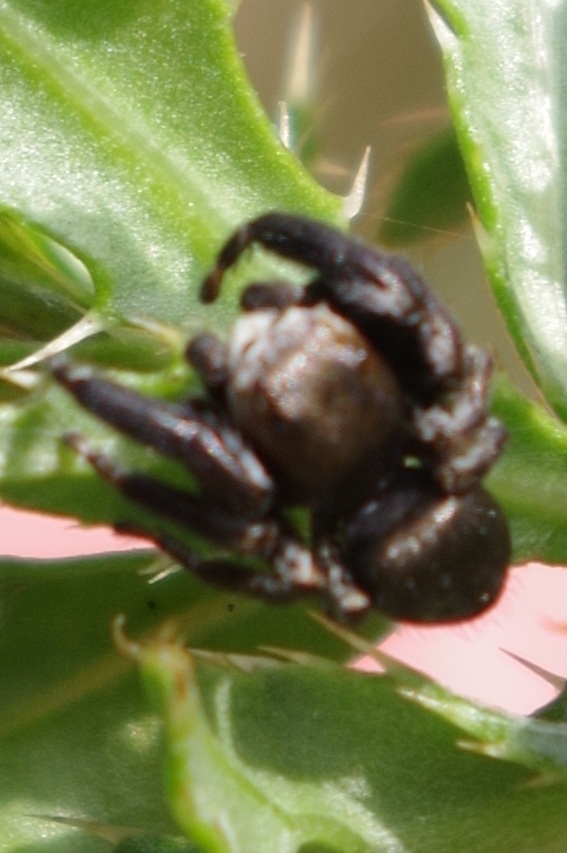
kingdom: Animalia
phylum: Arthropoda
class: Arachnida
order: Araneae
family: Salticidae
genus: Evarcha
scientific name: Evarcha arcuata
